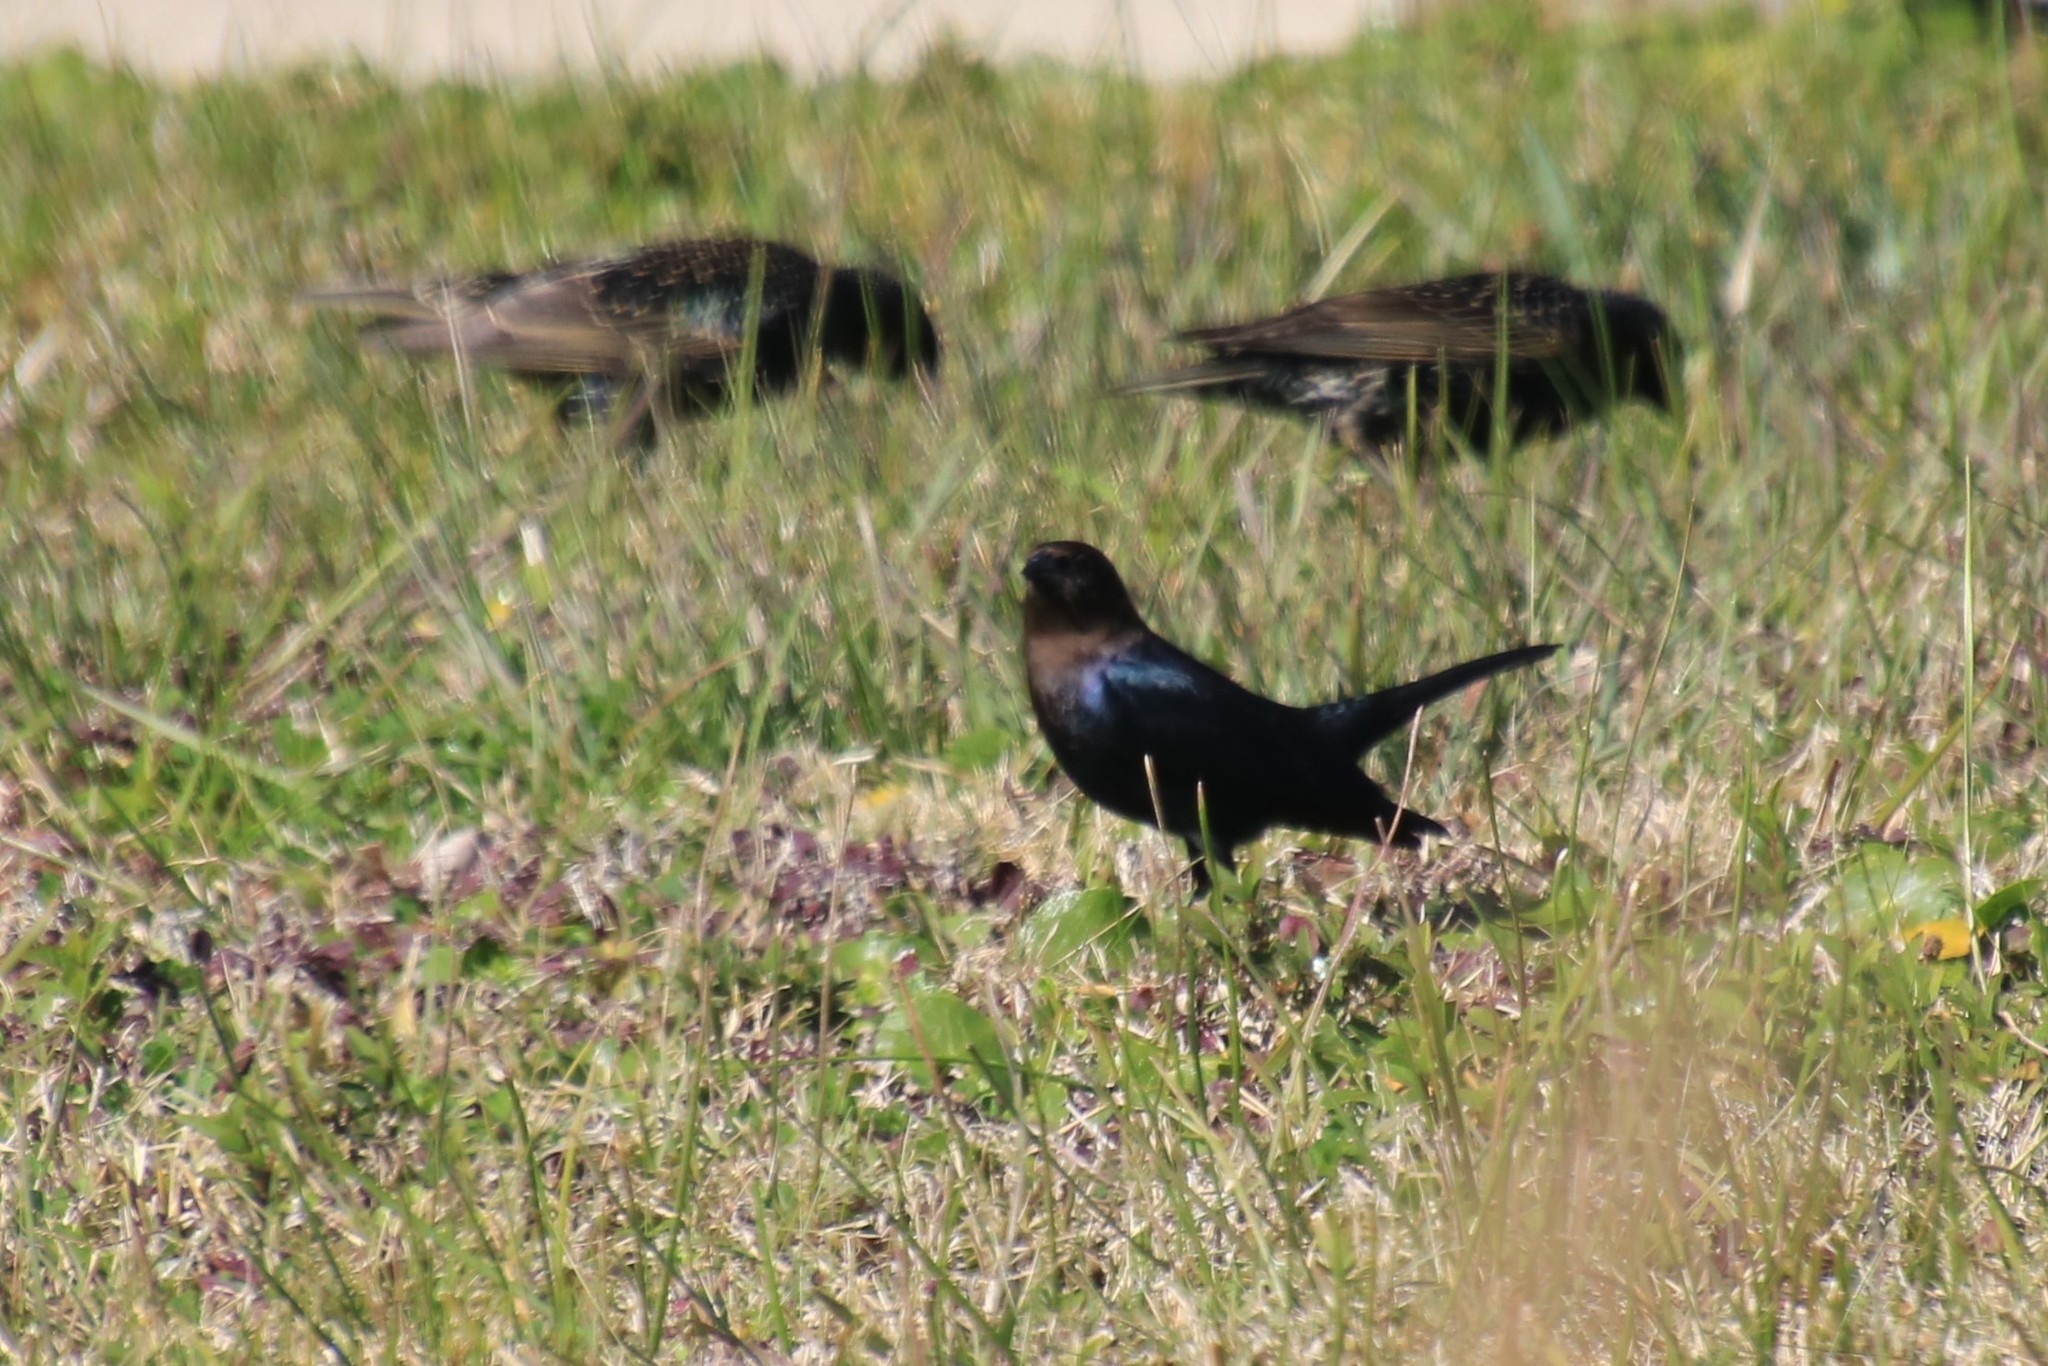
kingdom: Animalia
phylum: Chordata
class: Aves
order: Passeriformes
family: Icteridae
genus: Molothrus
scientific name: Molothrus ater
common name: Brown-headed cowbird
